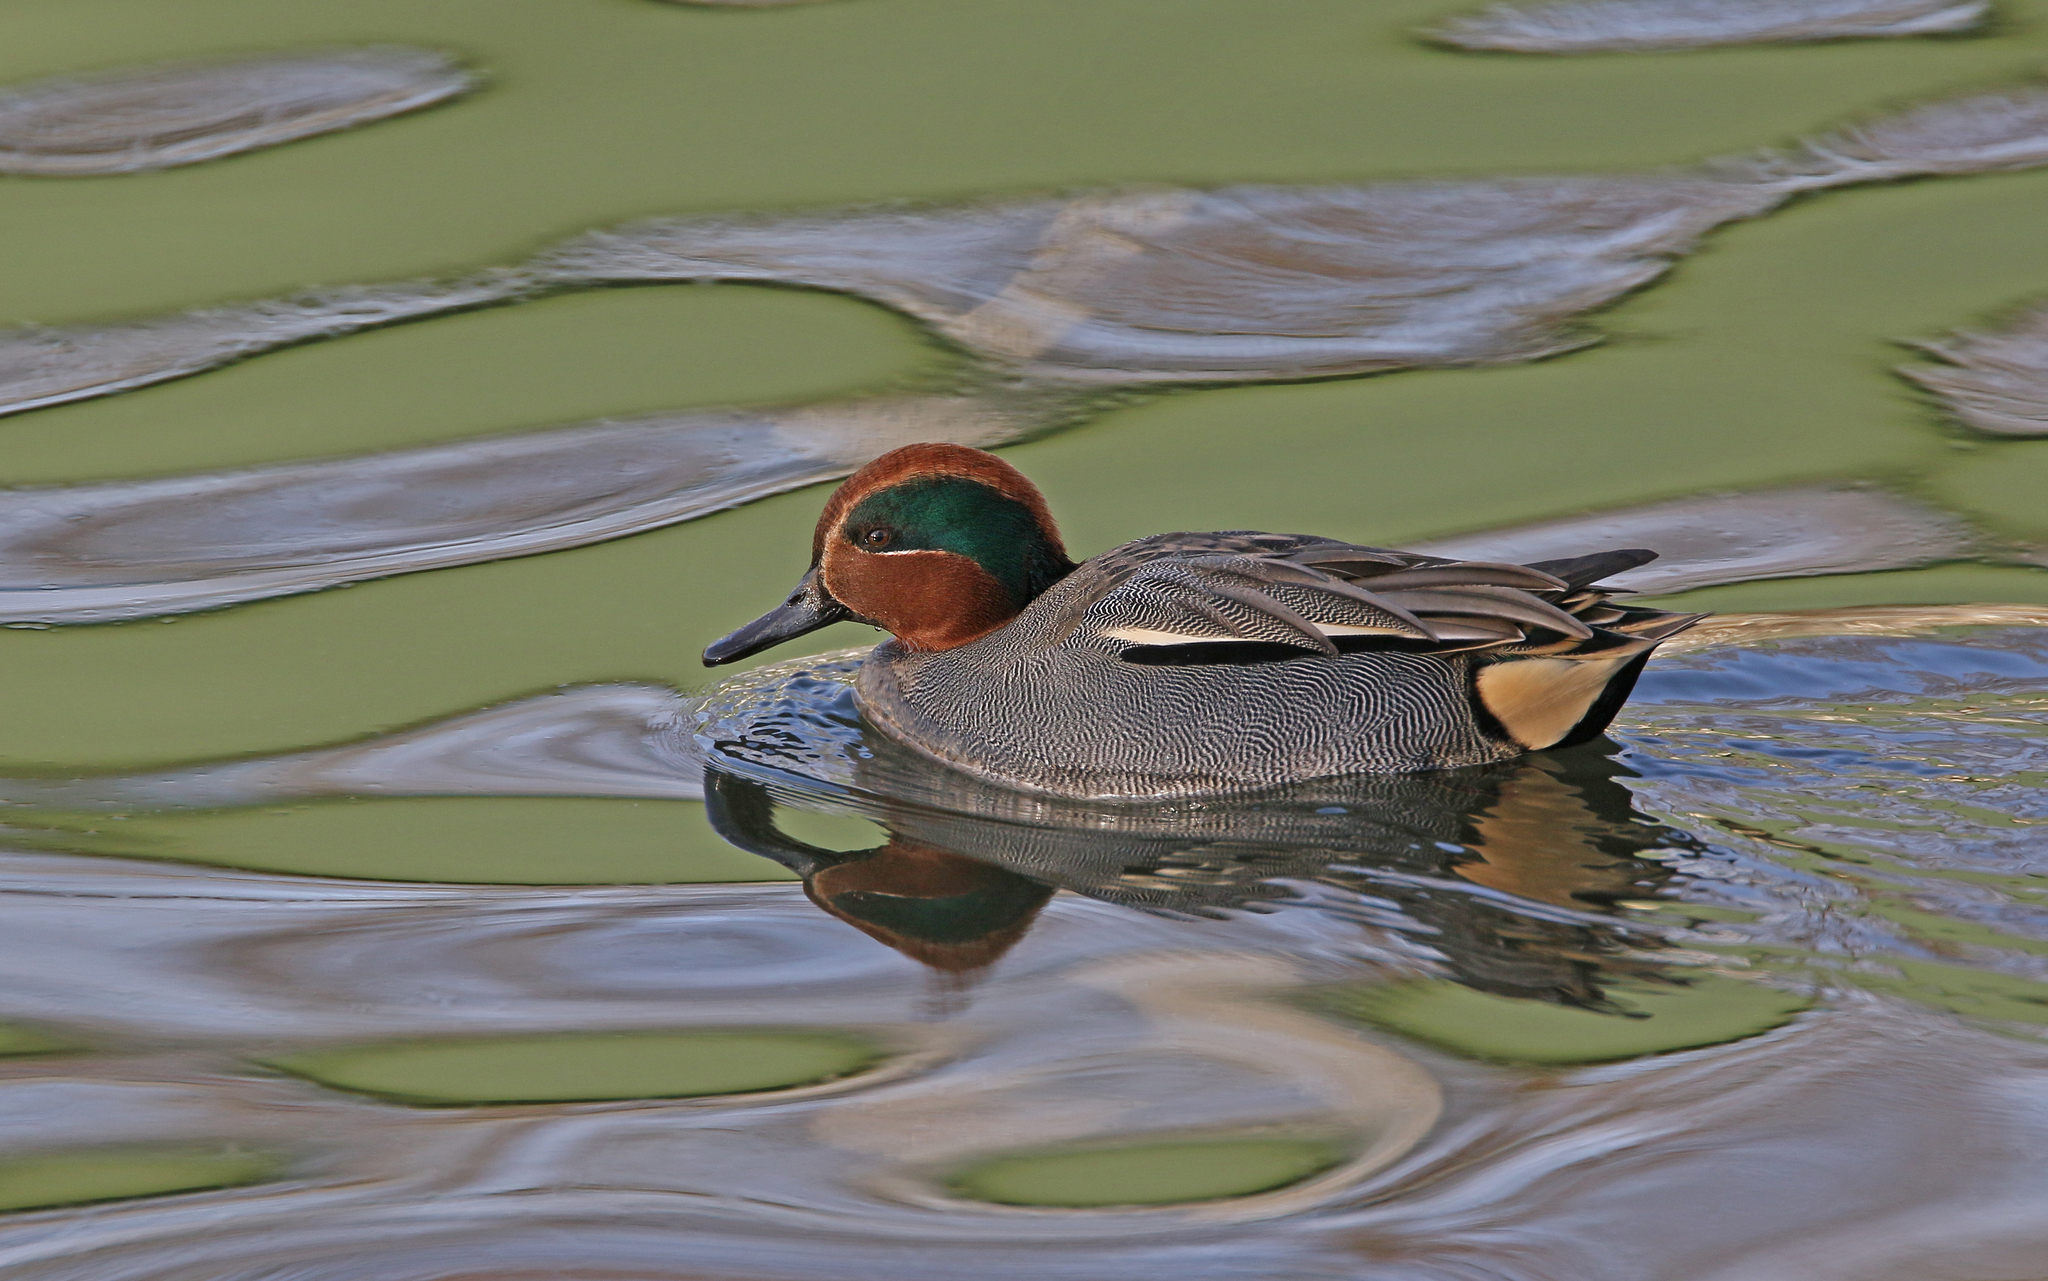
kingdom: Animalia
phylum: Chordata
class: Aves
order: Anseriformes
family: Anatidae
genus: Anas
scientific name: Anas crecca
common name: Eurasian teal
